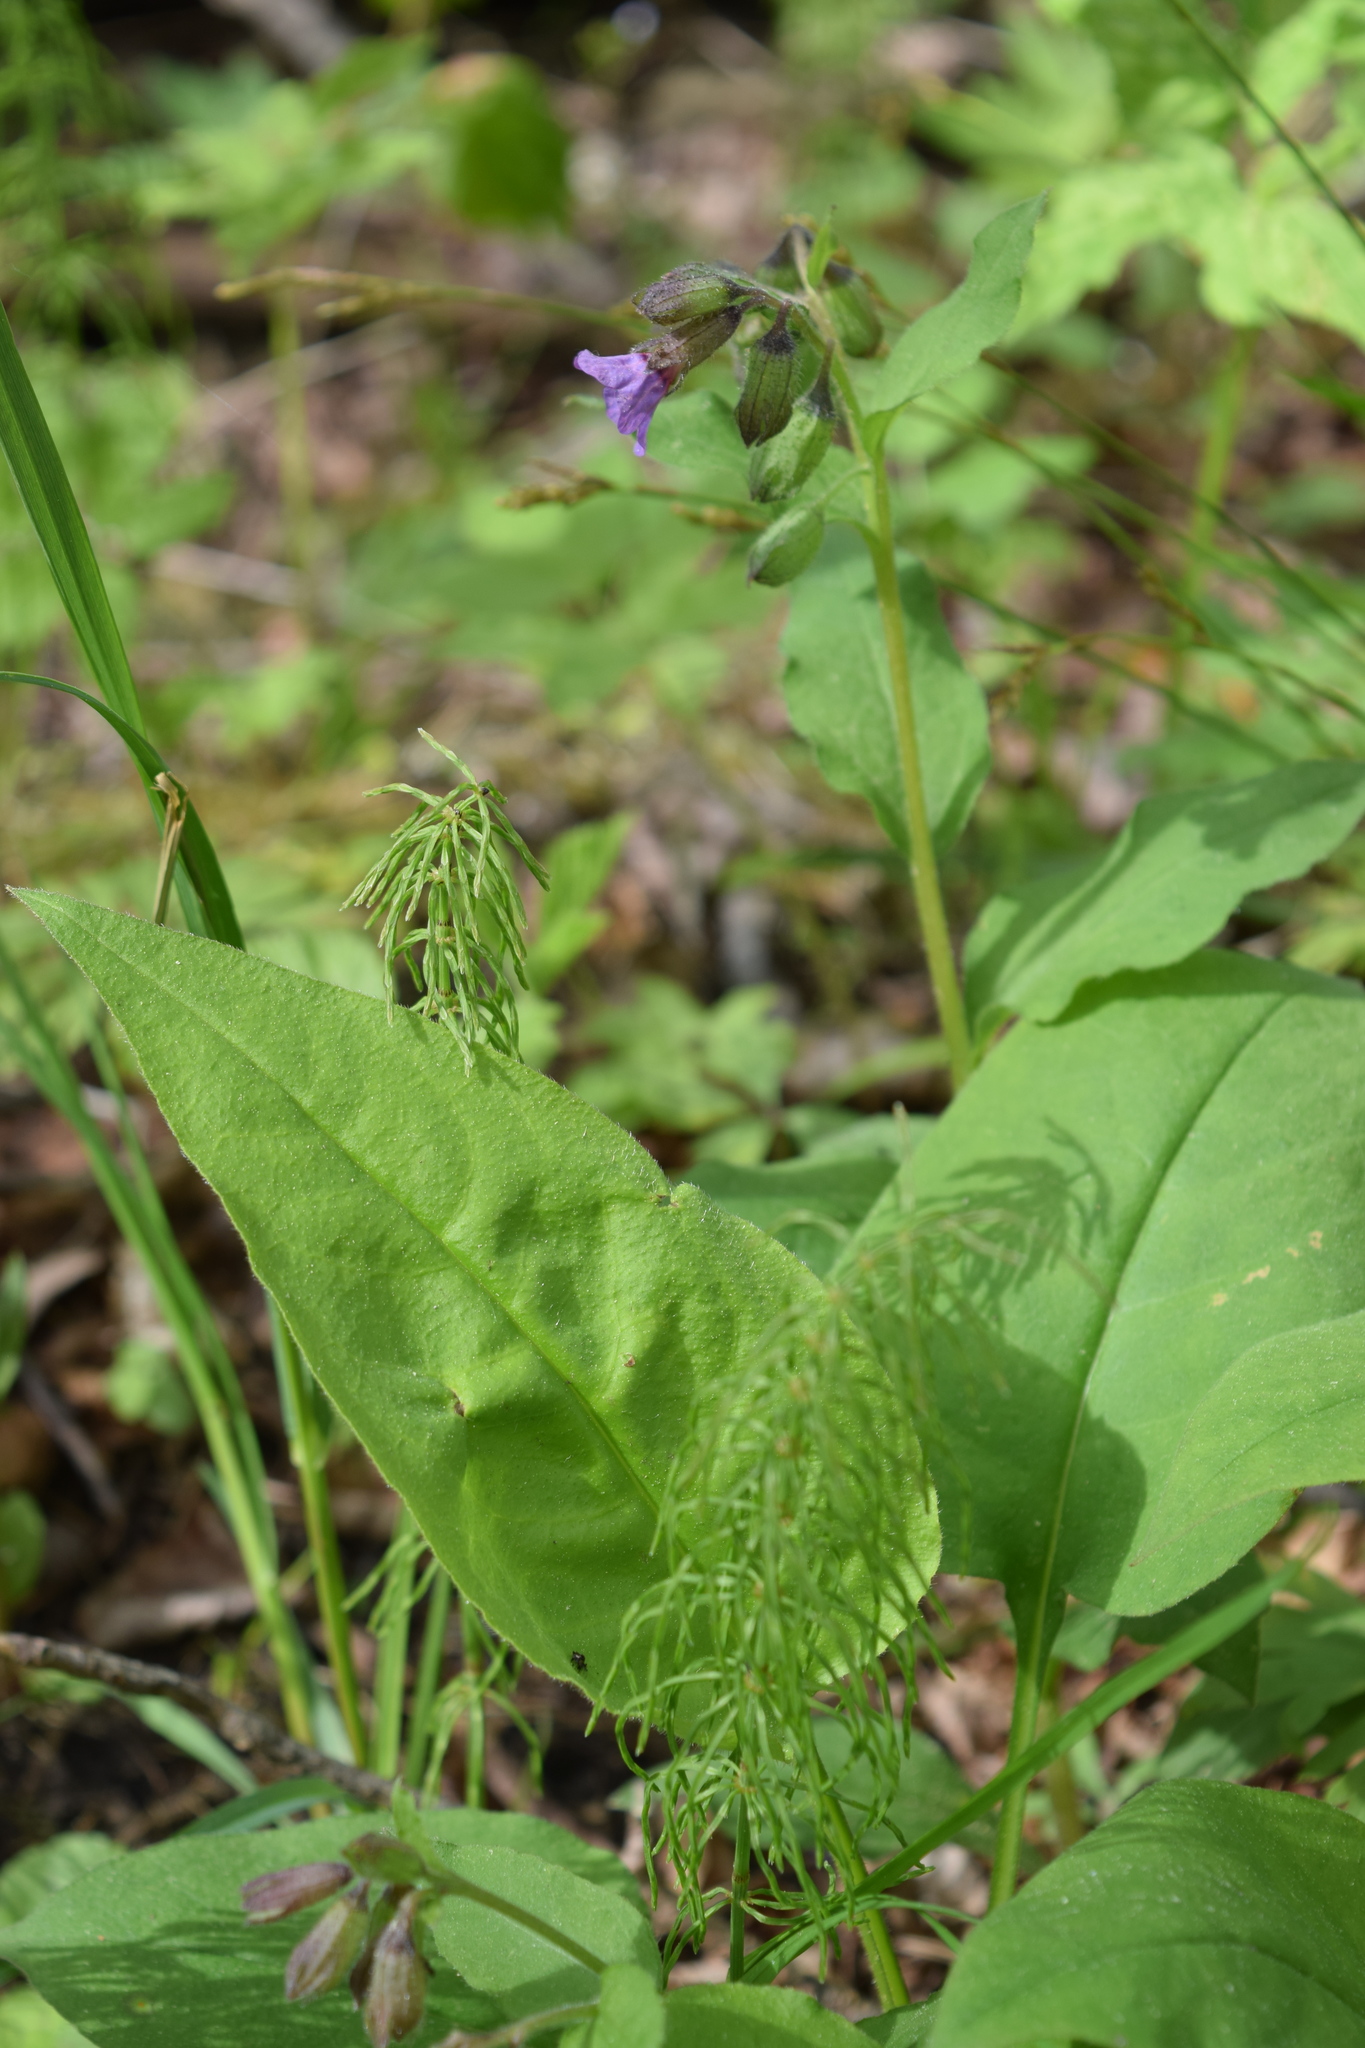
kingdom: Plantae
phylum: Tracheophyta
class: Magnoliopsida
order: Boraginales
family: Boraginaceae
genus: Pulmonaria
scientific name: Pulmonaria obscura
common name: Suffolk lungwort
